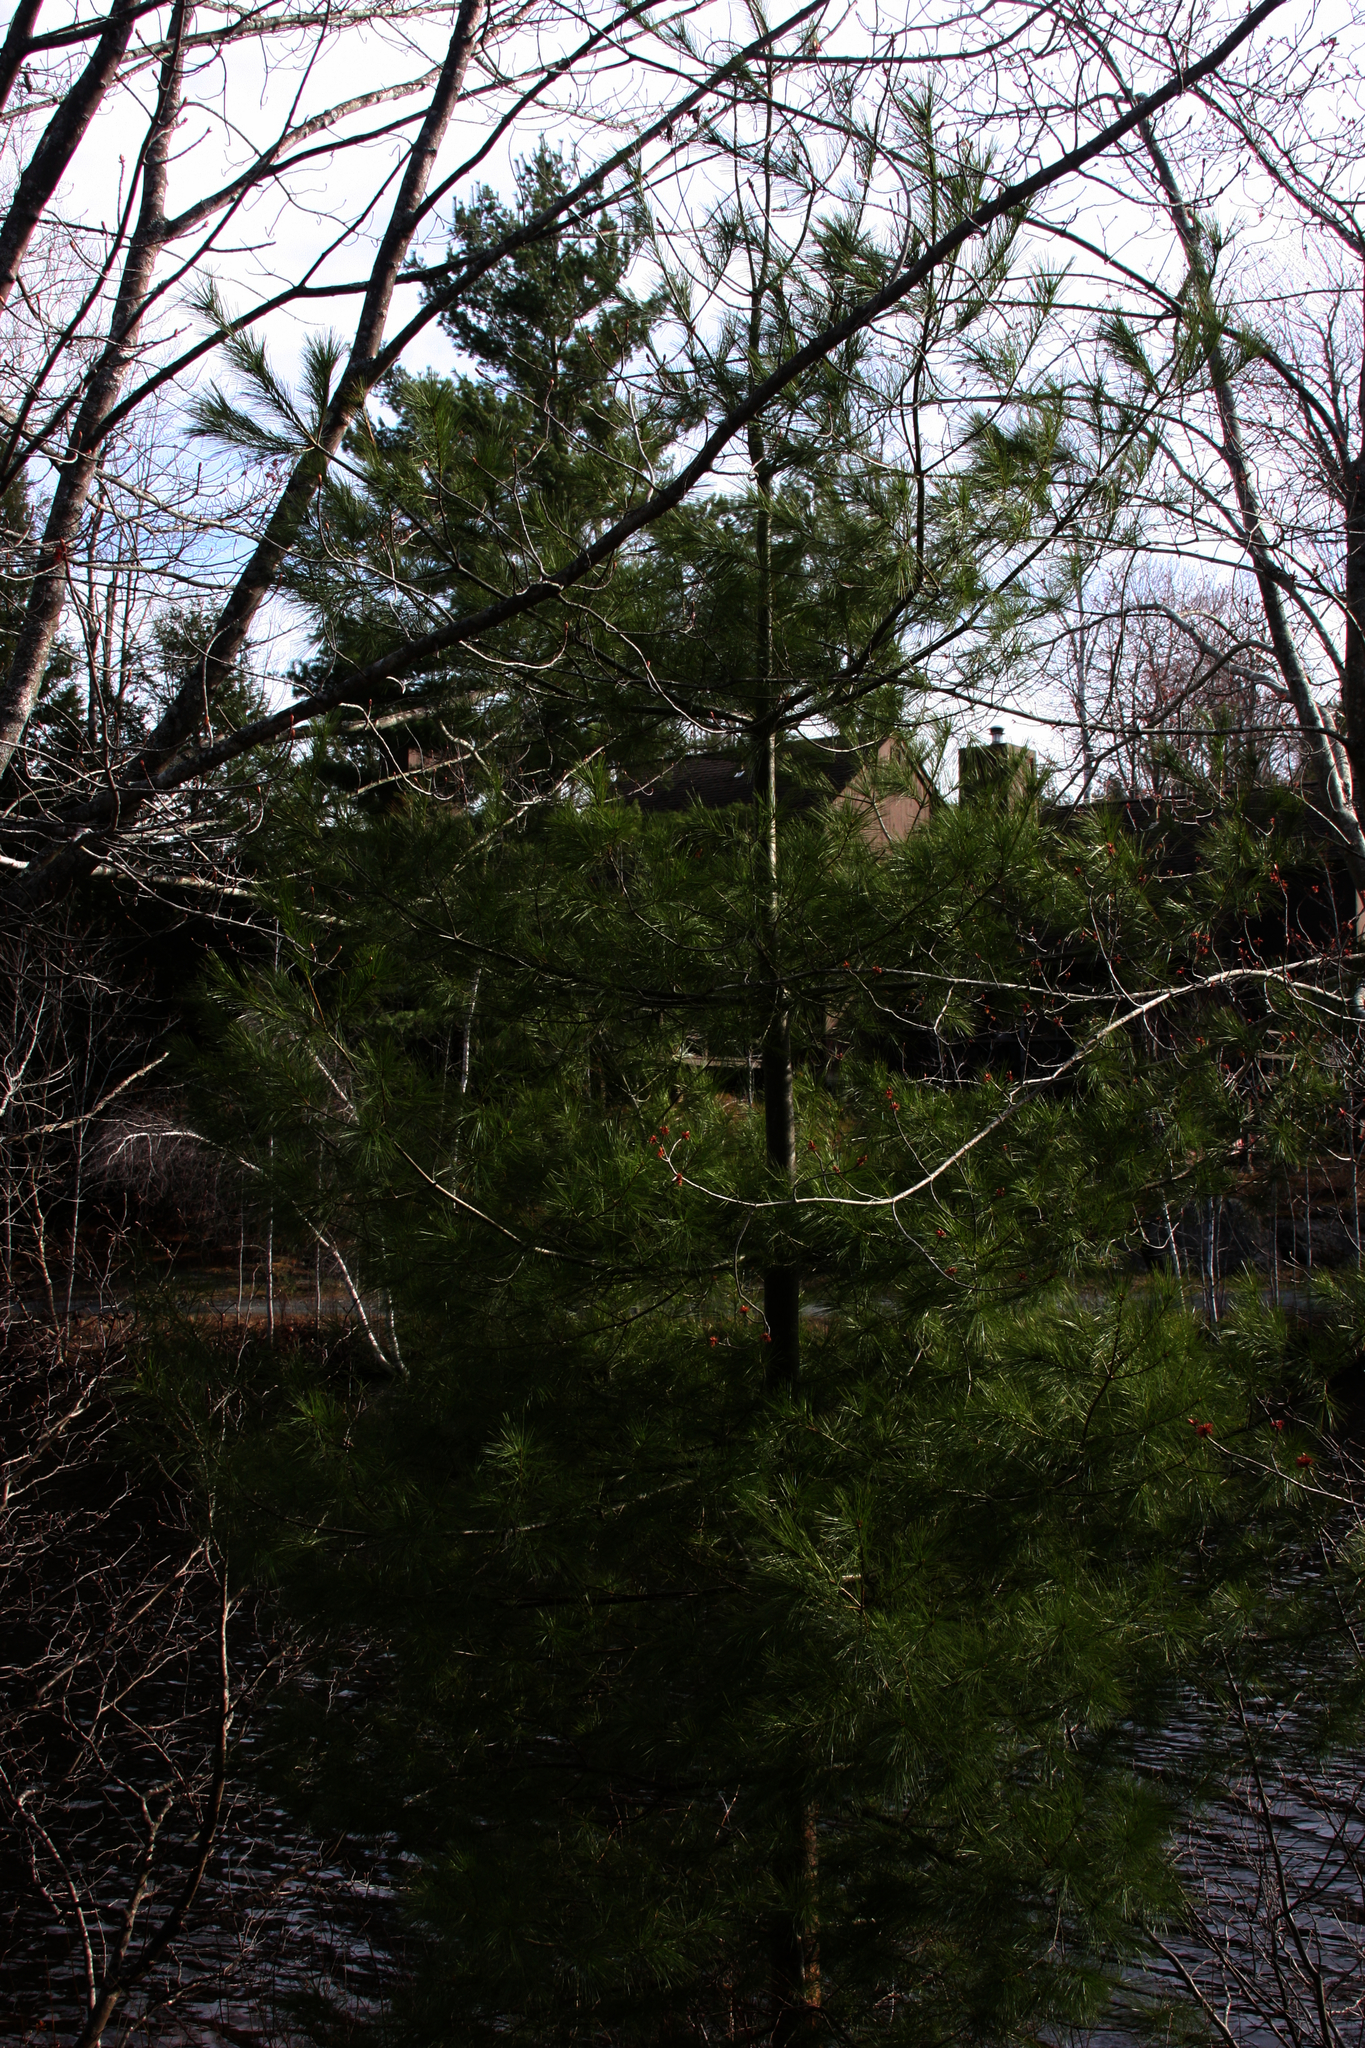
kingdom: Plantae
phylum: Tracheophyta
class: Pinopsida
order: Pinales
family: Pinaceae
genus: Pinus
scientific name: Pinus strobus
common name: Weymouth pine
